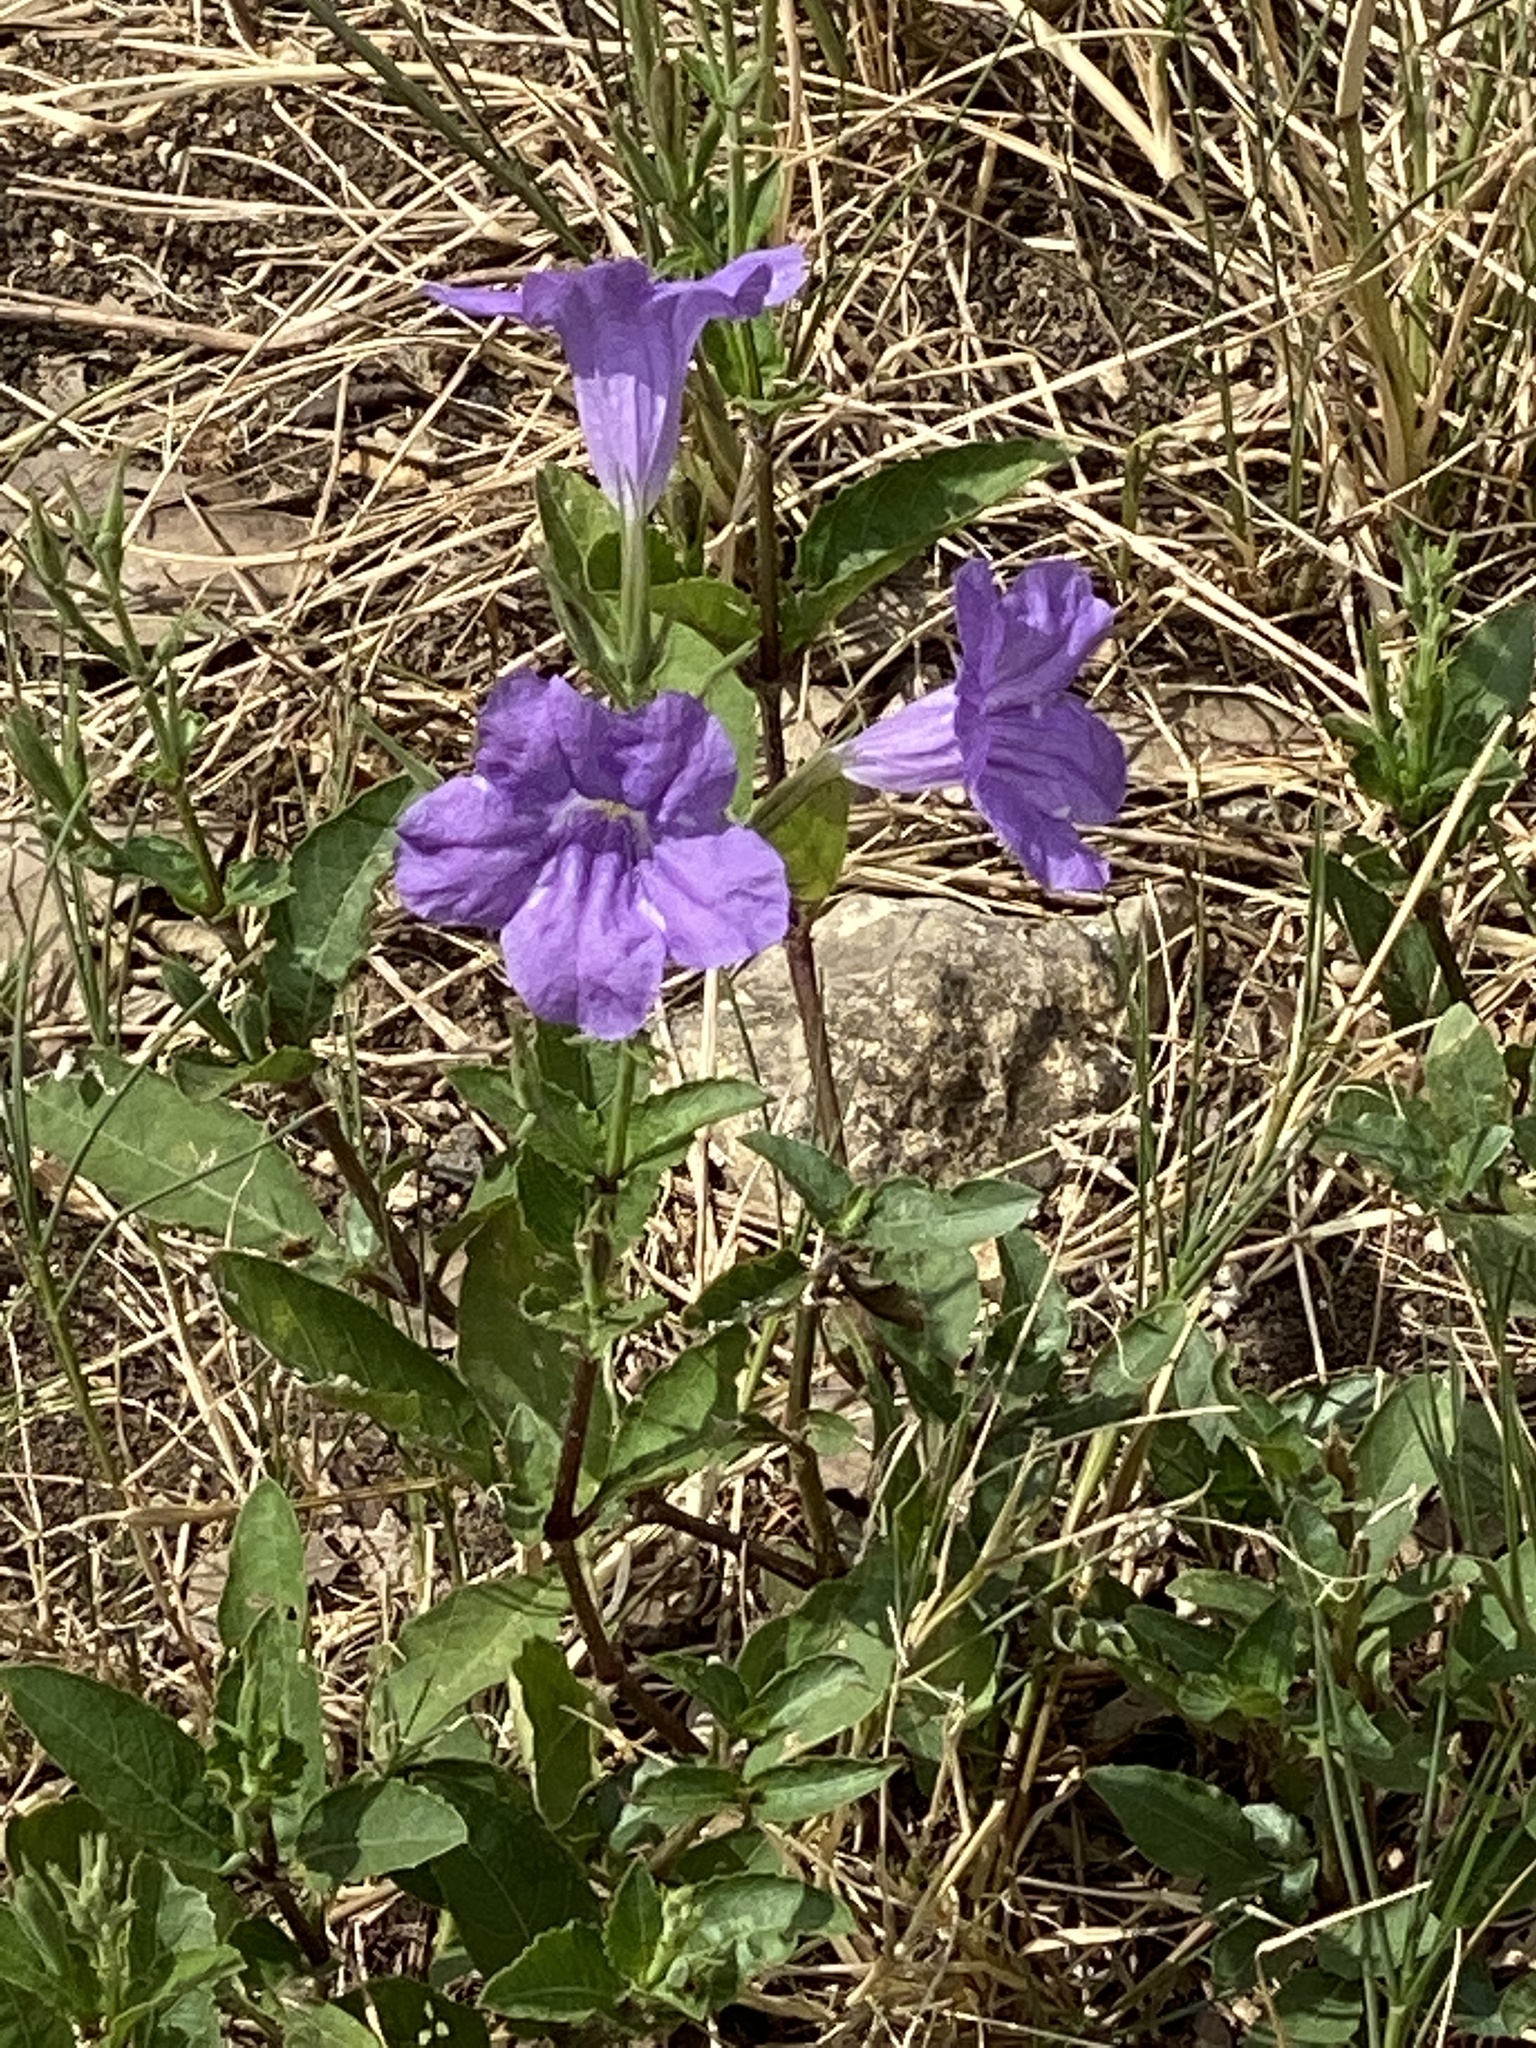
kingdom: Plantae
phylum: Tracheophyta
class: Magnoliopsida
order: Lamiales
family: Acanthaceae
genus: Ruellia
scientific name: Ruellia ciliatiflora
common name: Hairyflower wild petunia
